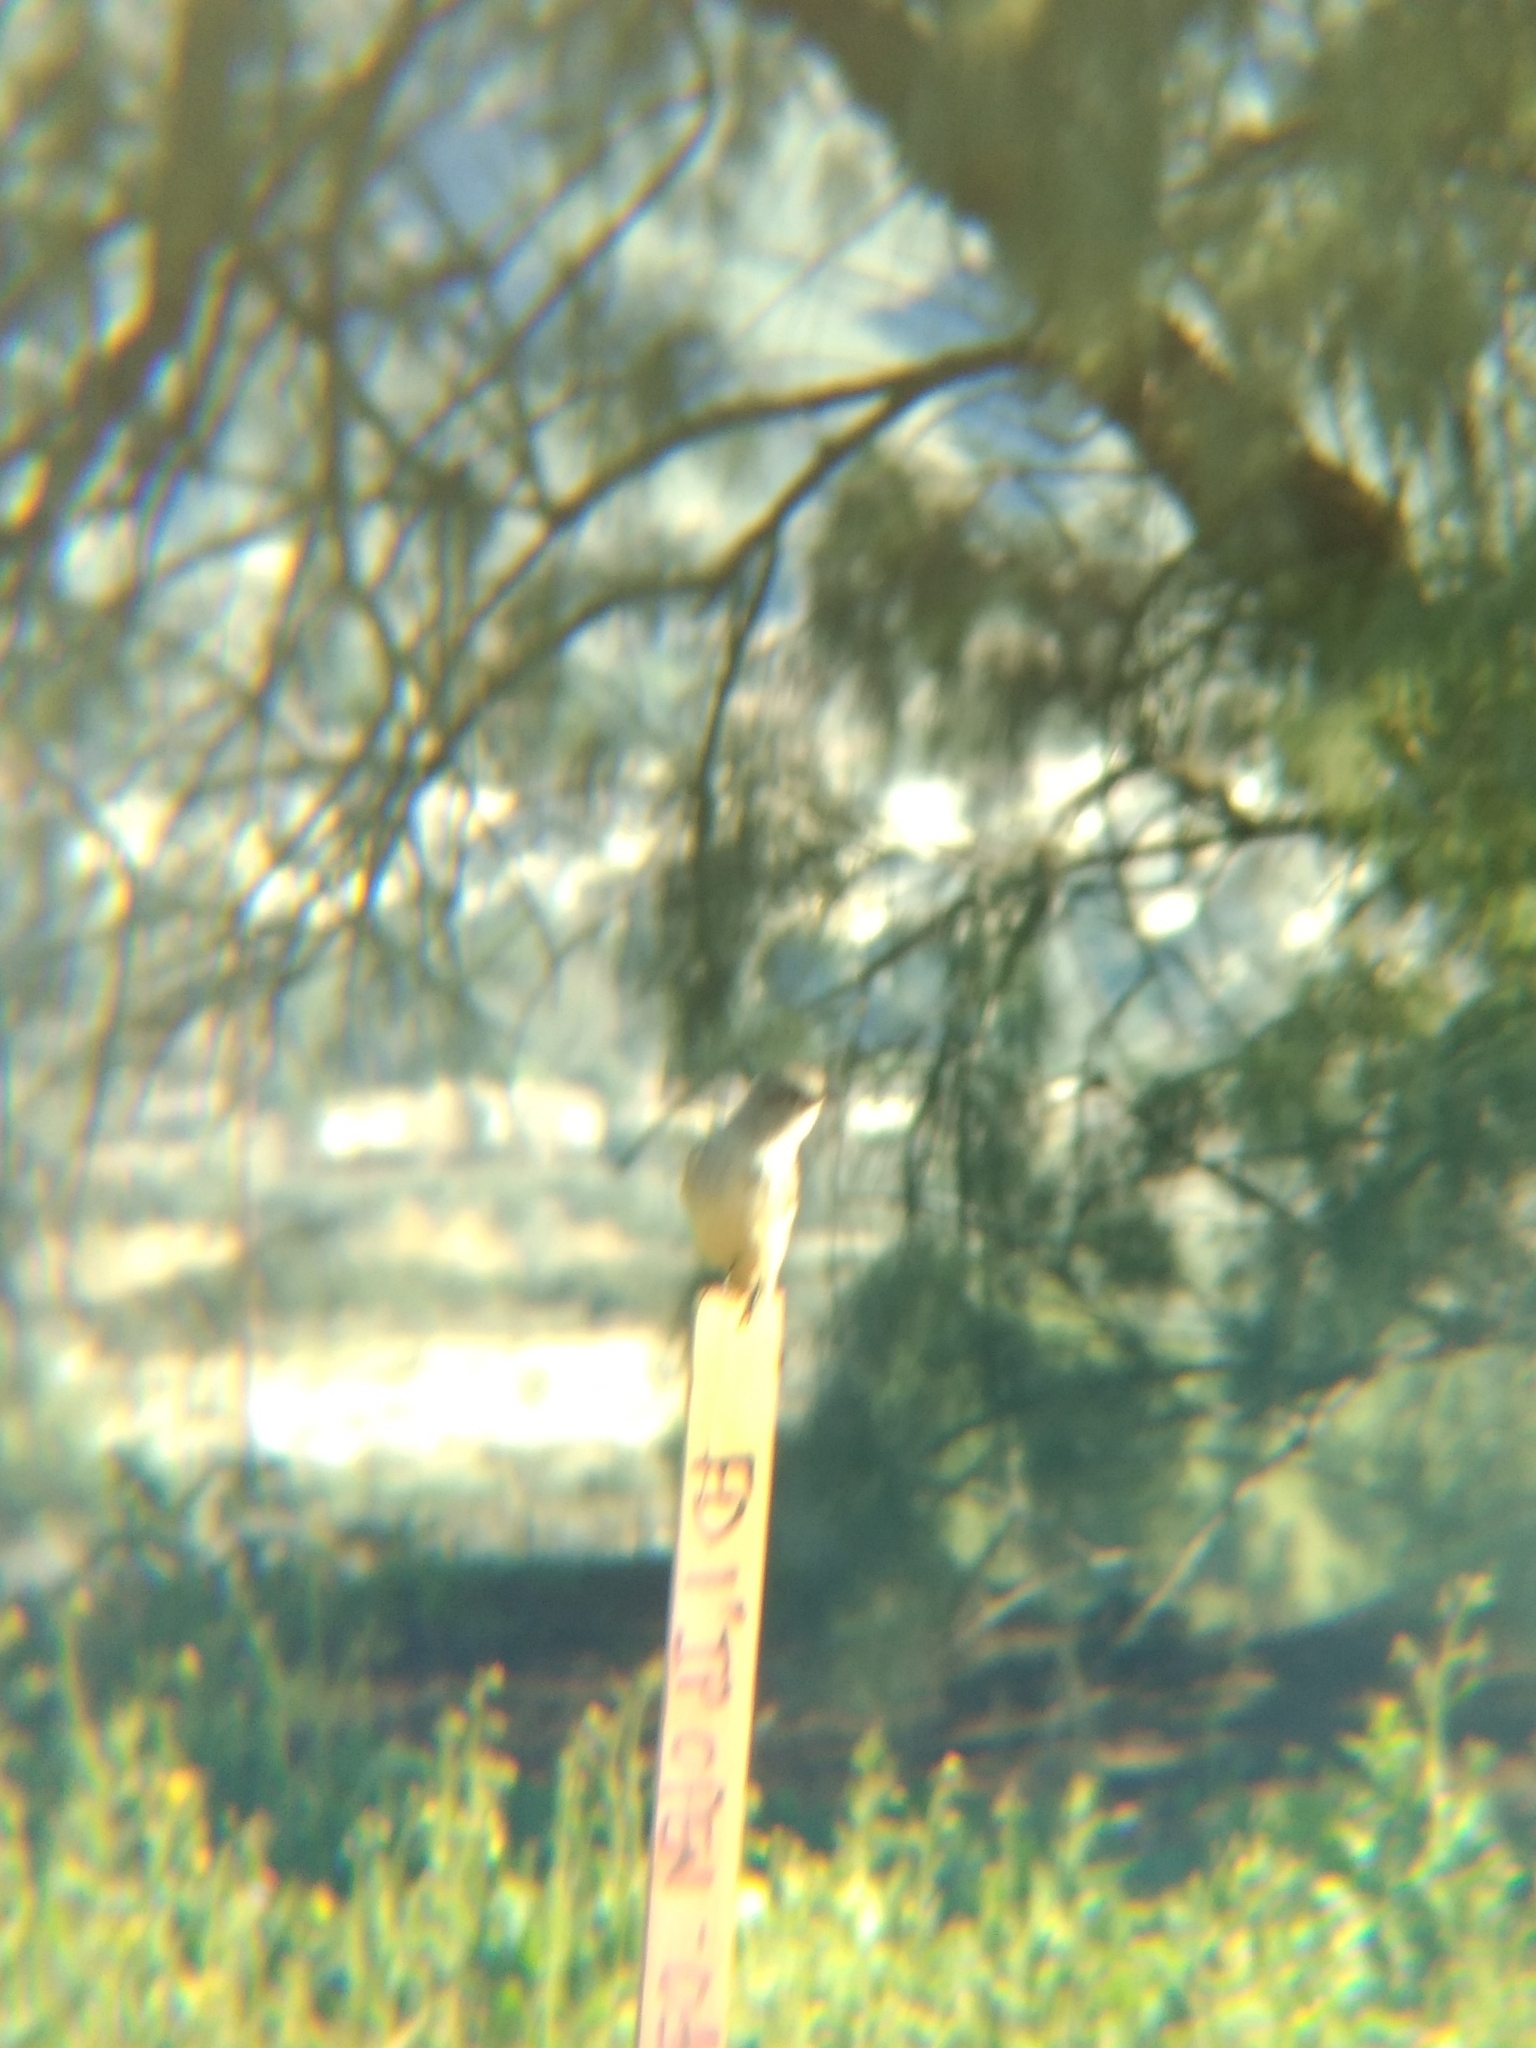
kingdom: Animalia
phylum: Chordata
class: Aves
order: Passeriformes
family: Tyrannidae
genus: Sayornis
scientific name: Sayornis saya
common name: Say's phoebe
